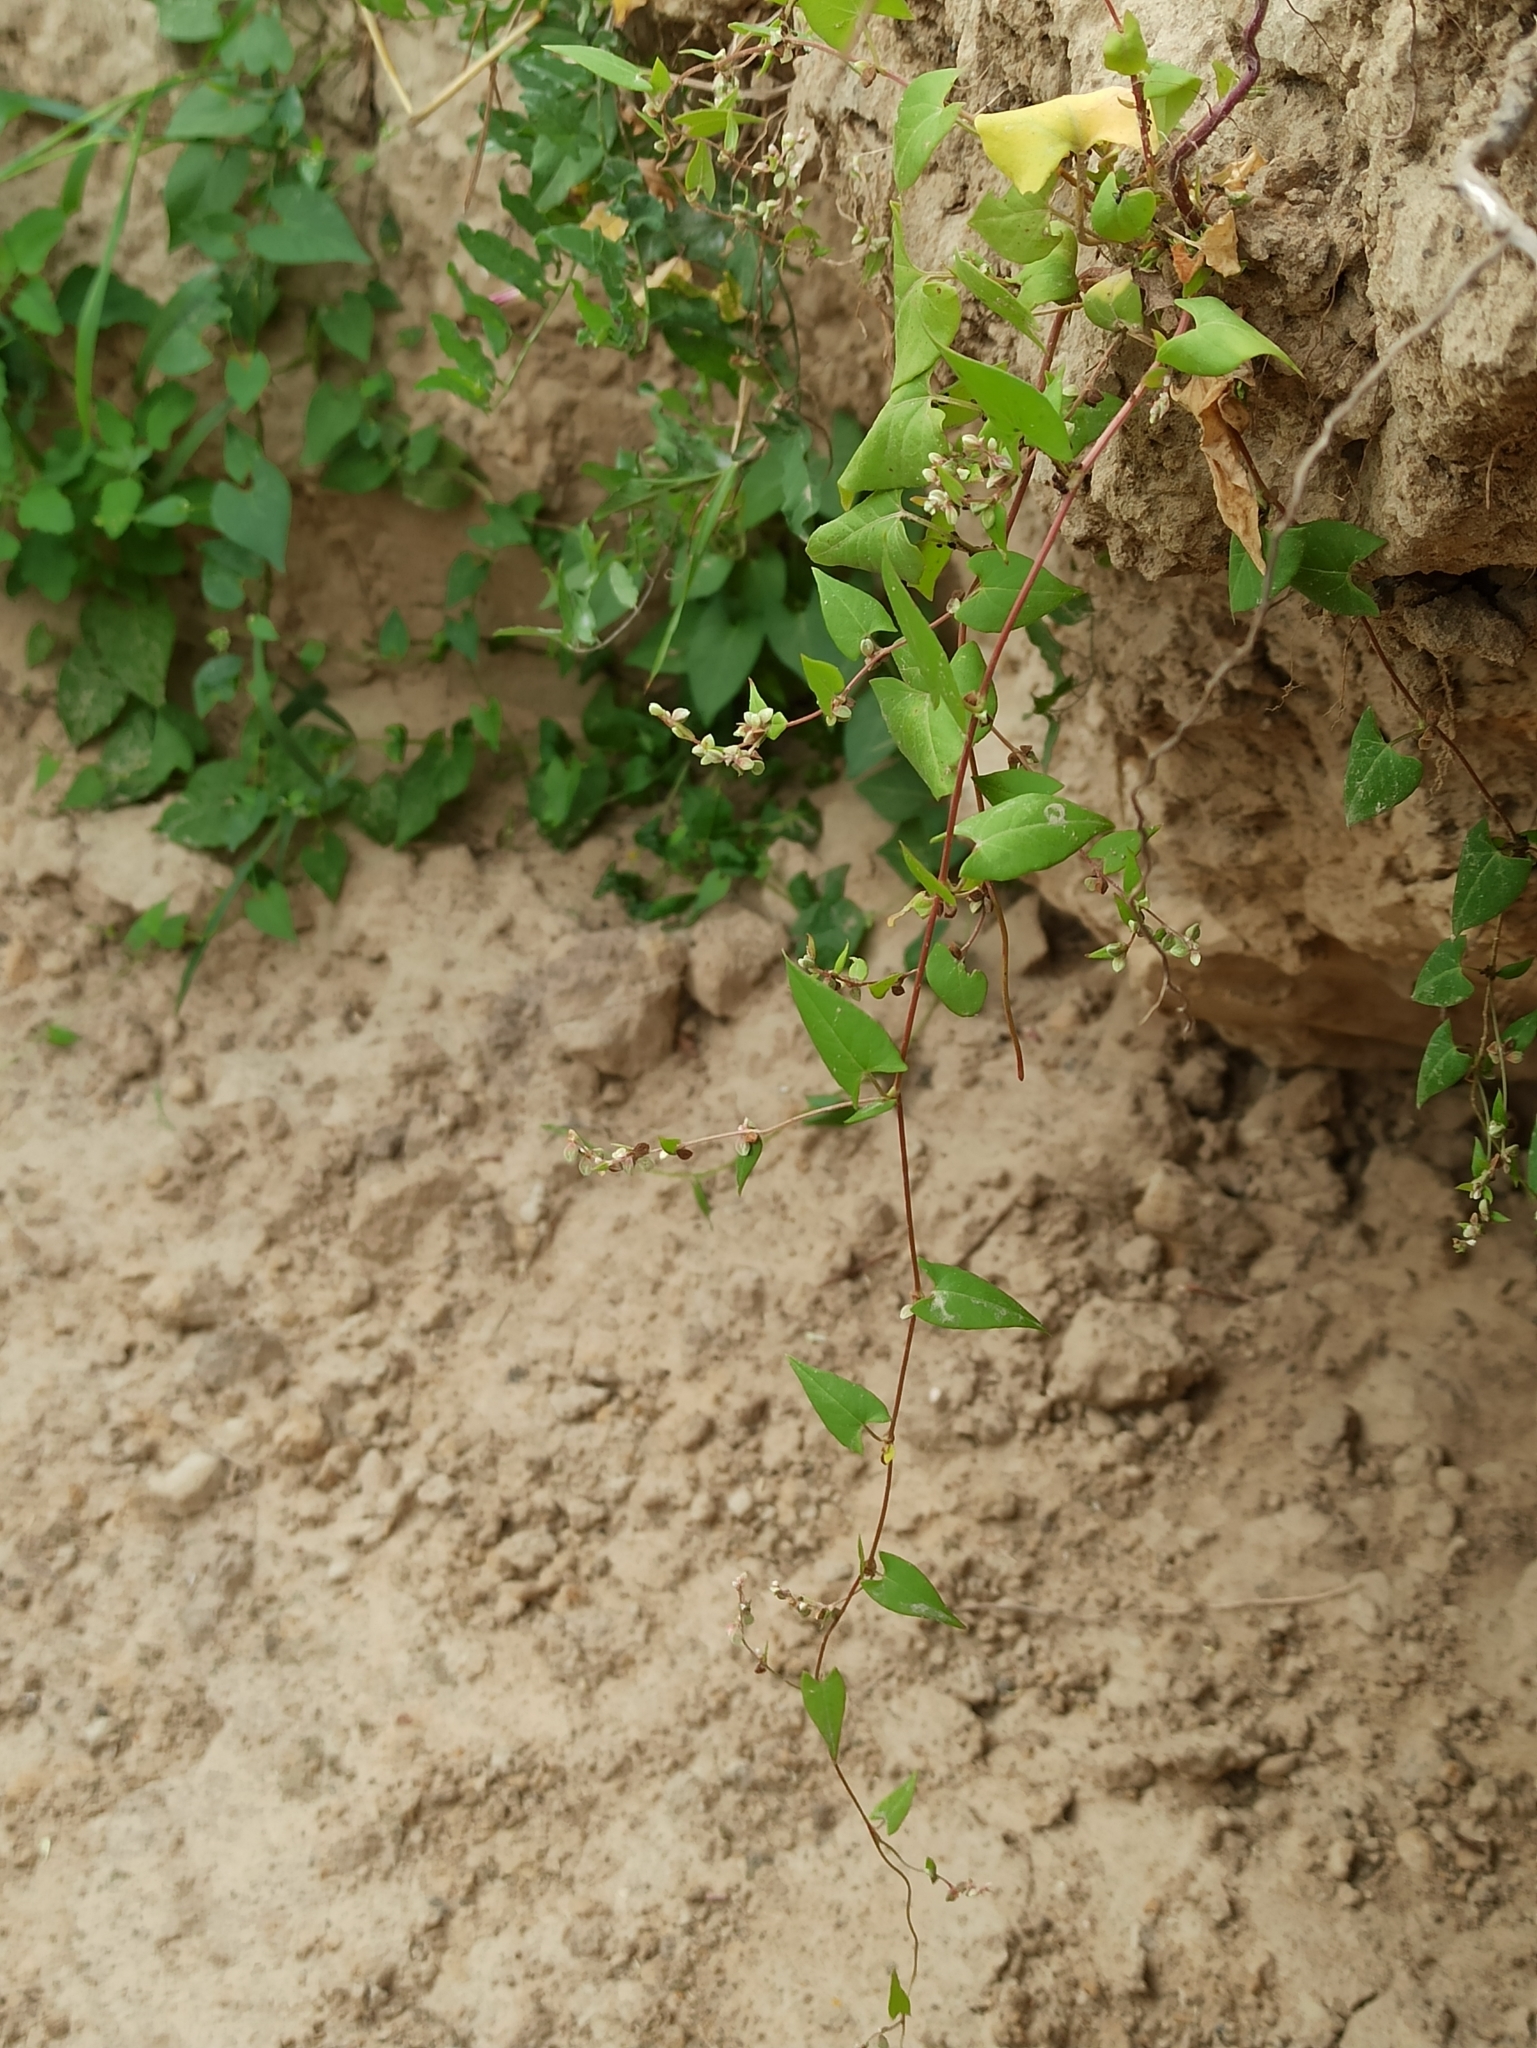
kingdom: Plantae
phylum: Tracheophyta
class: Magnoliopsida
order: Caryophyllales
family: Polygonaceae
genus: Fallopia
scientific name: Fallopia convolvulus
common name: Black bindweed
